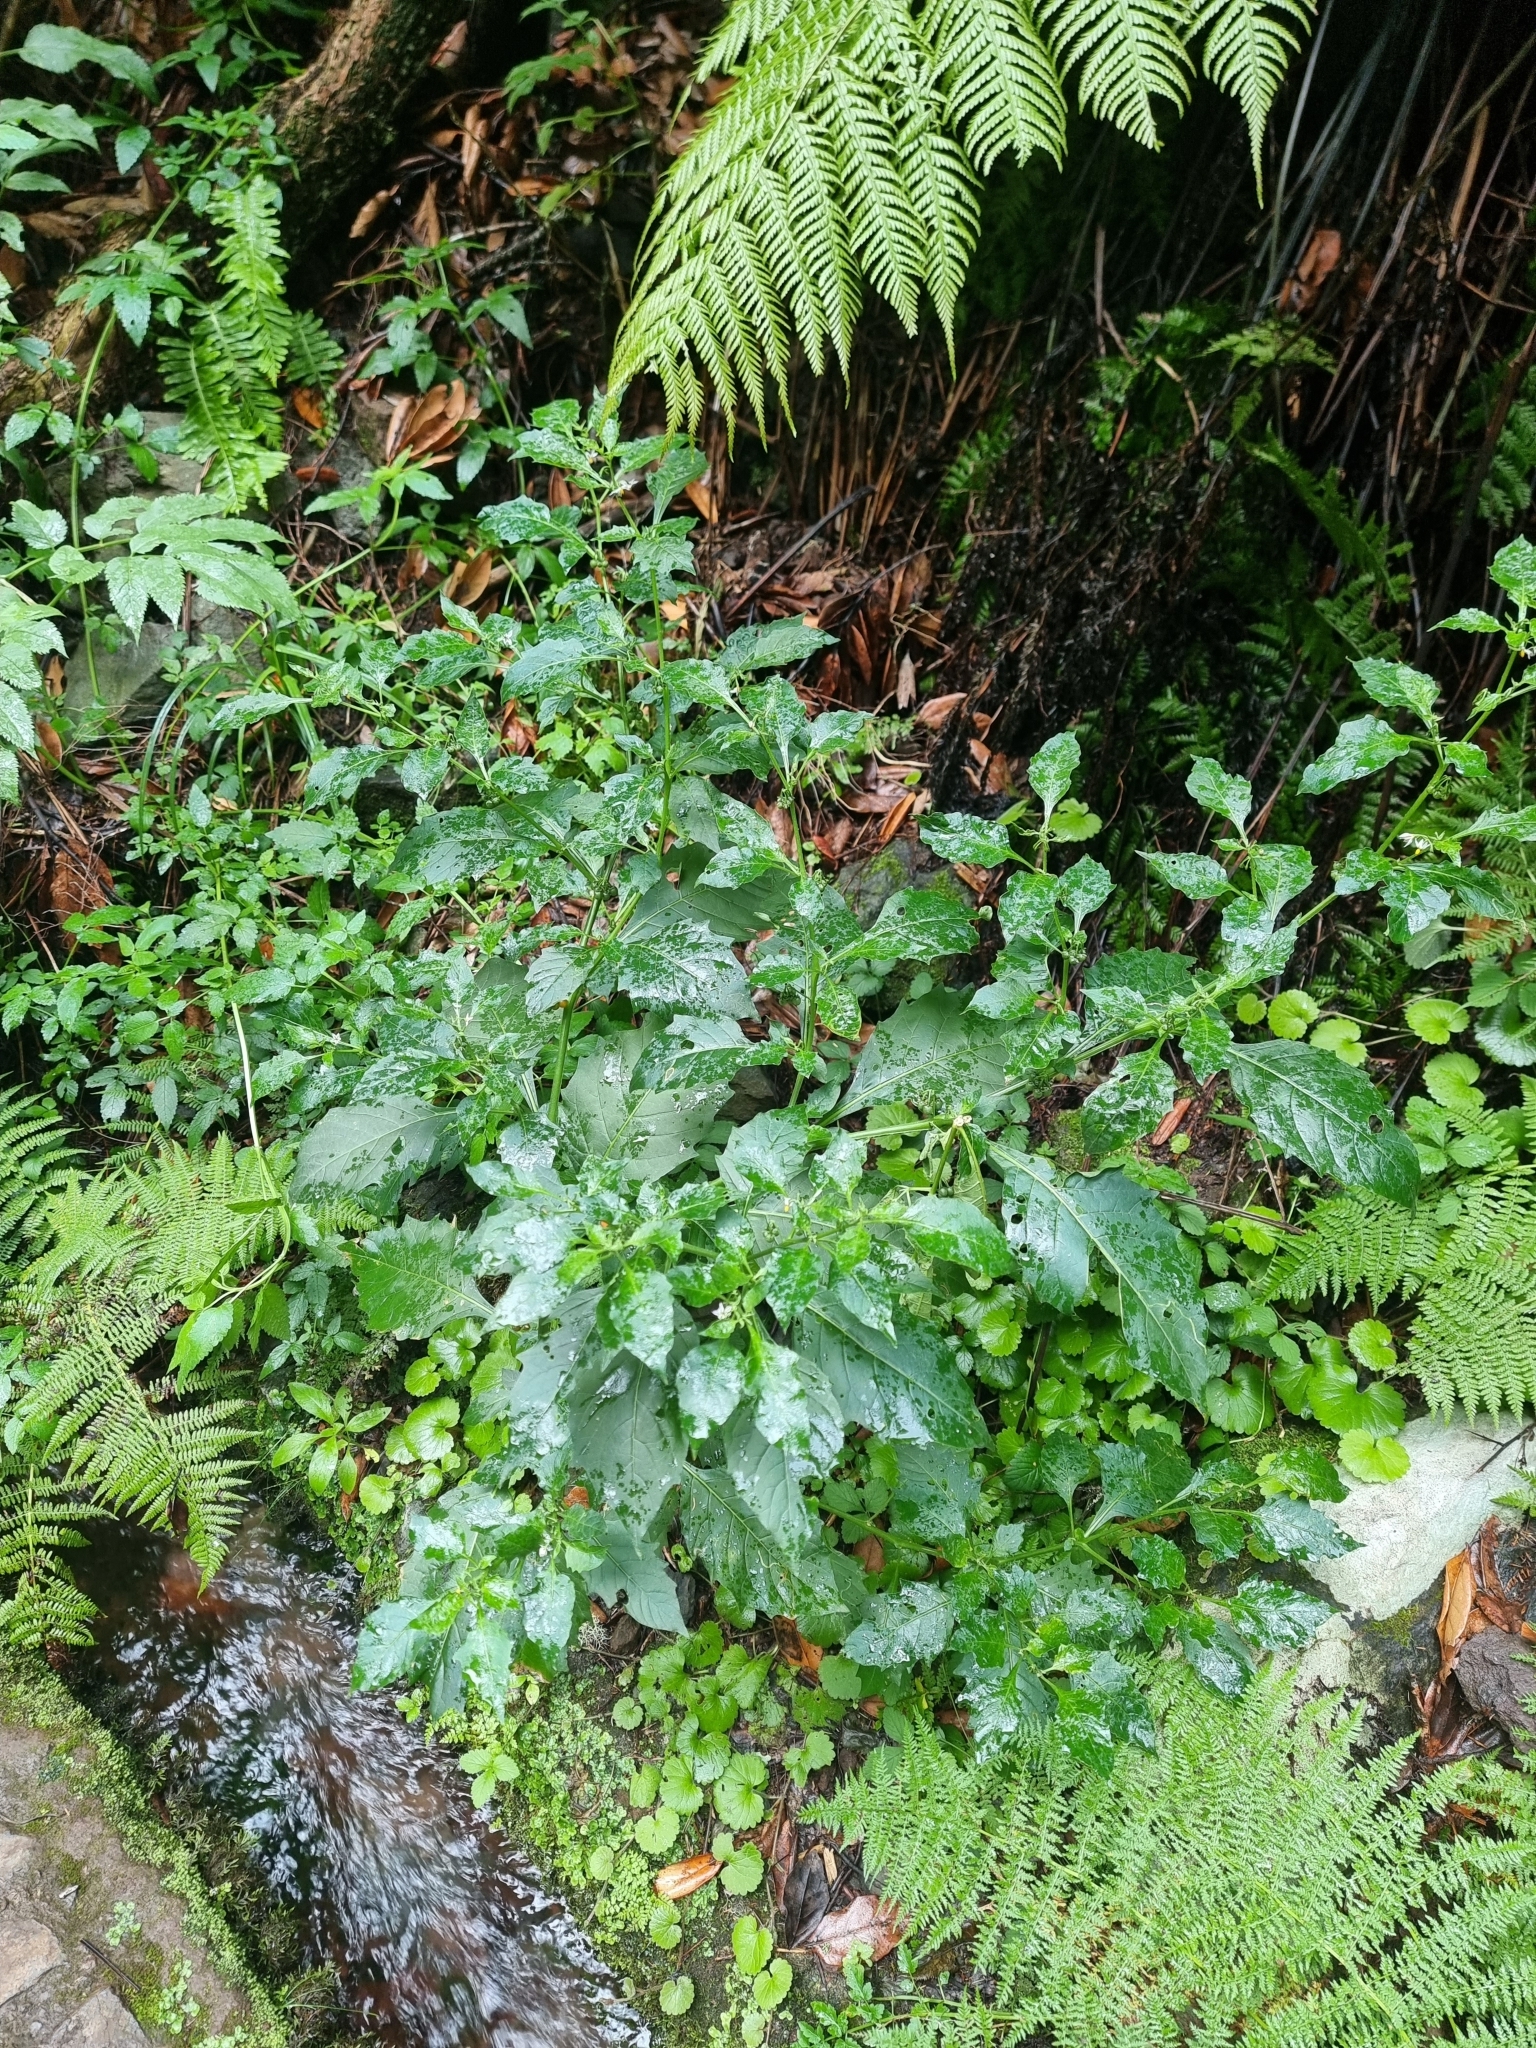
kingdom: Plantae
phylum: Tracheophyta
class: Magnoliopsida
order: Solanales
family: Solanaceae
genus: Solanum
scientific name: Solanum villosum
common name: Red nightshade
